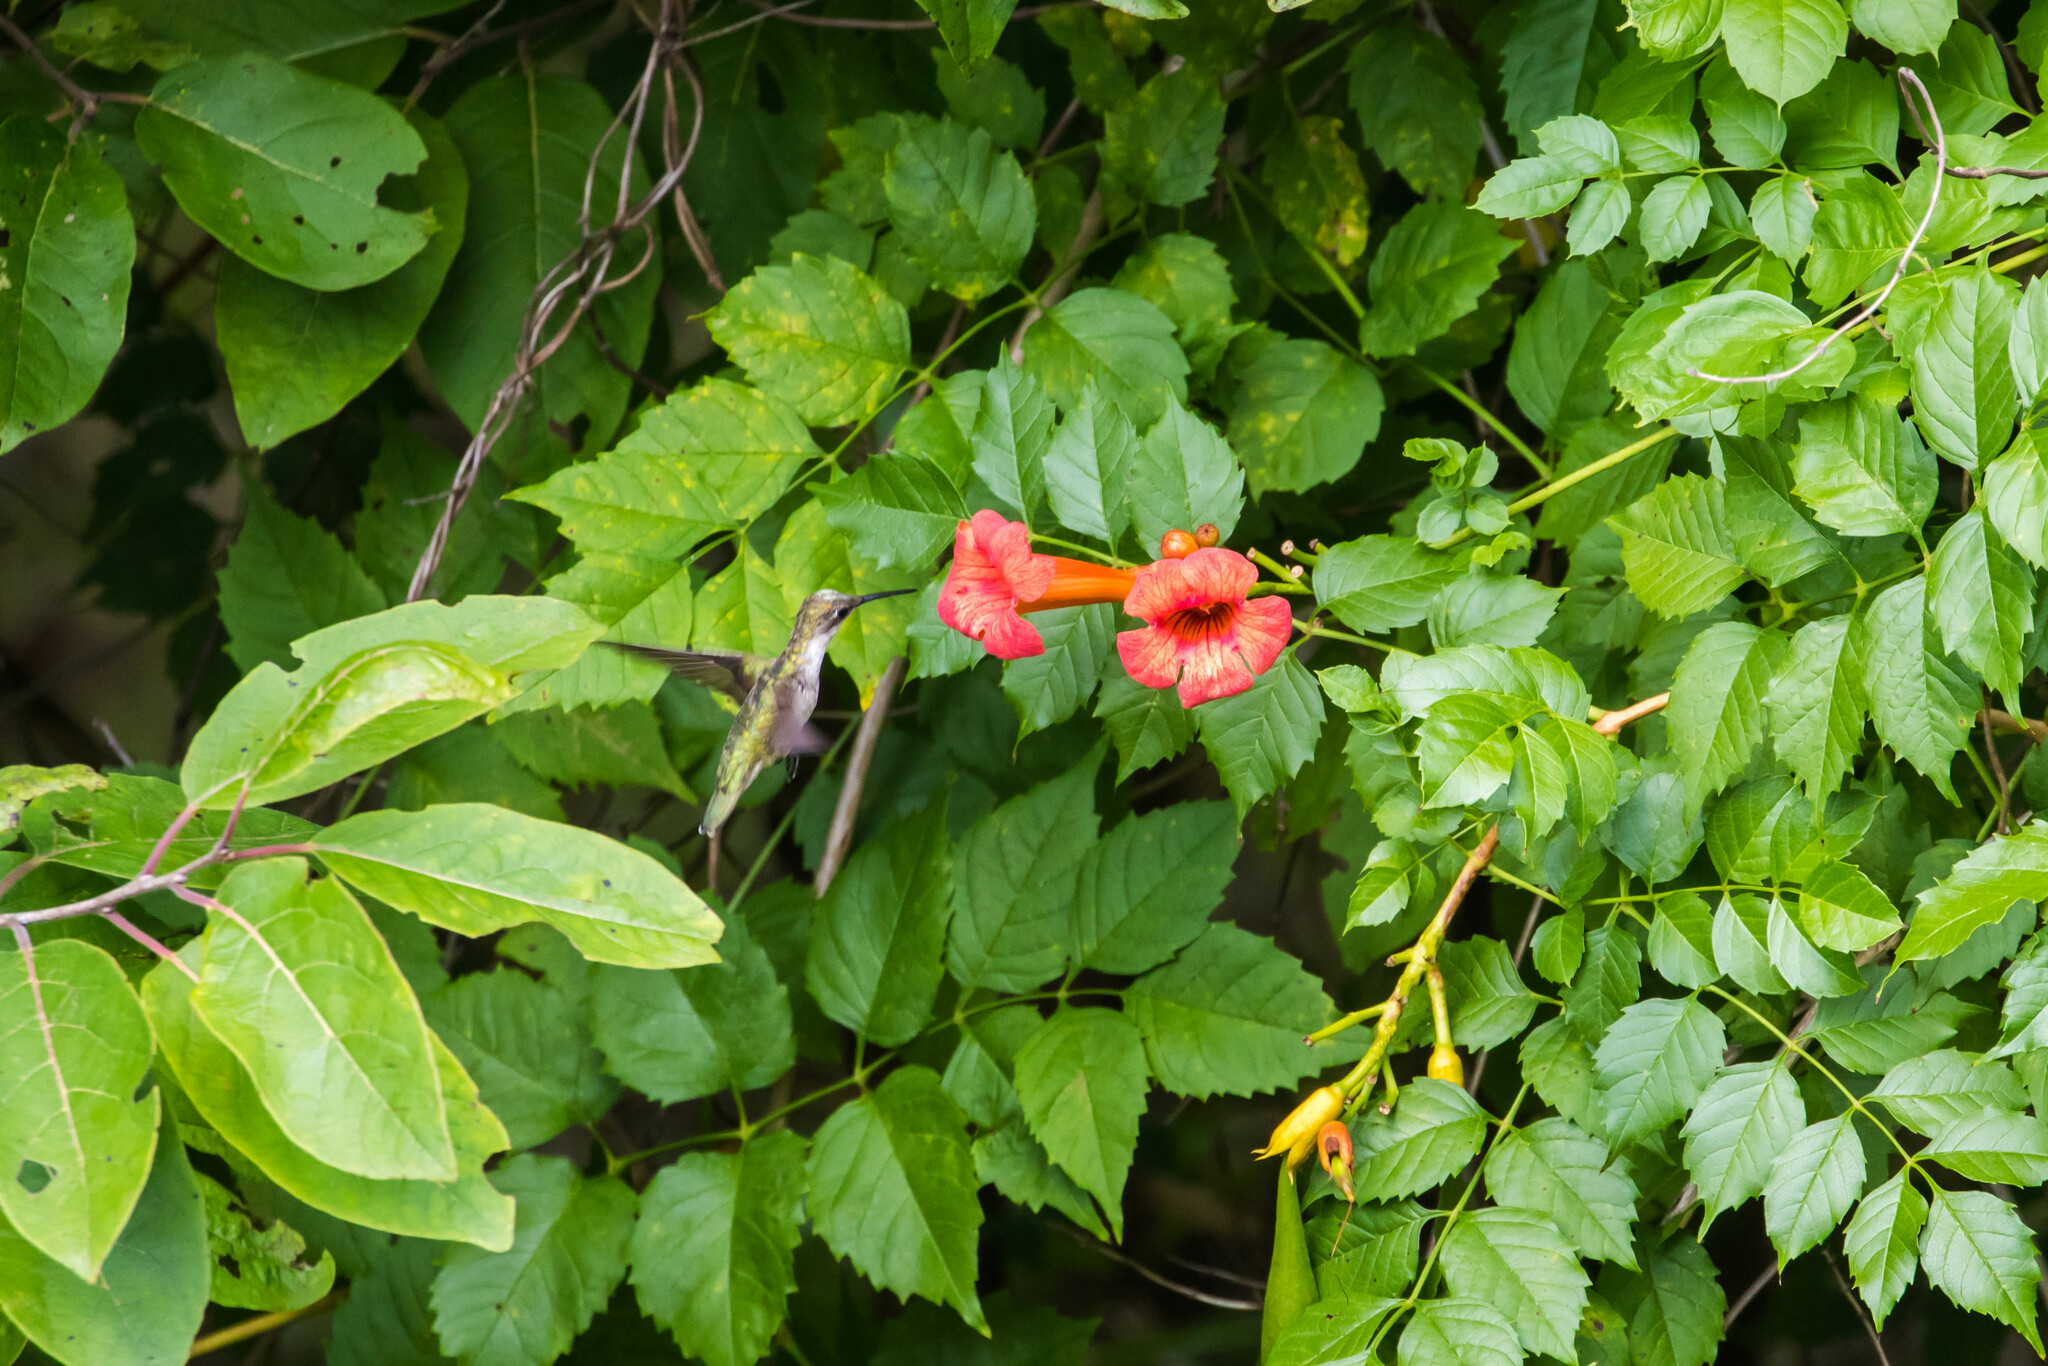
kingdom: Animalia
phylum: Chordata
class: Aves
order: Apodiformes
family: Trochilidae
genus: Archilochus
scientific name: Archilochus colubris
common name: Ruby-throated hummingbird
